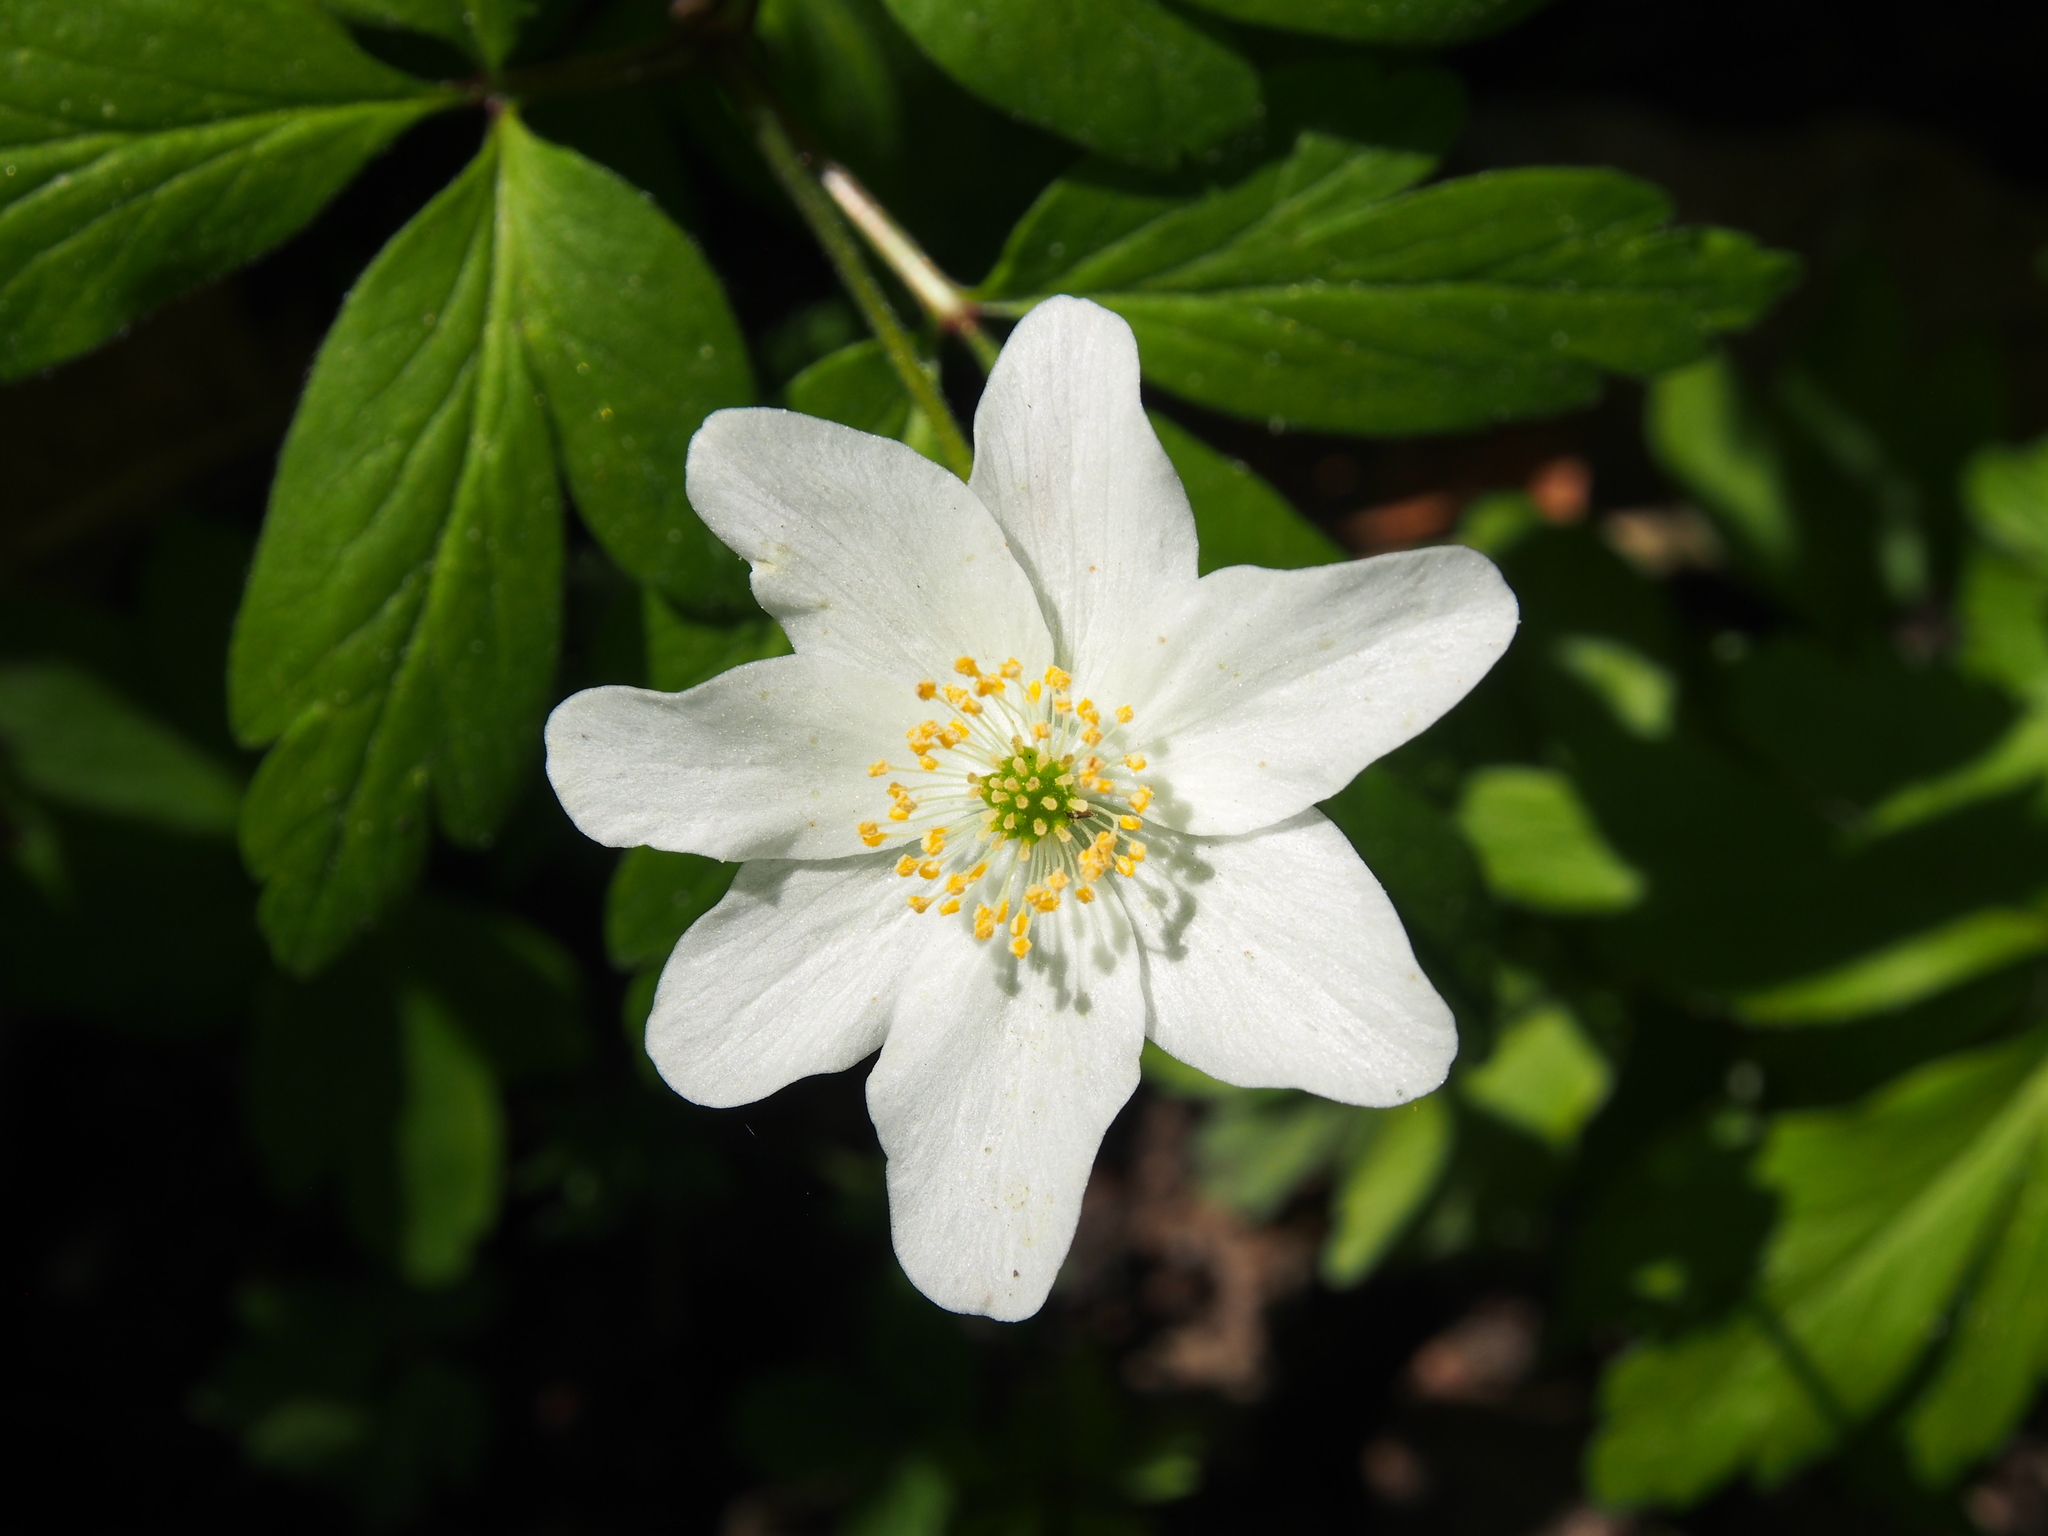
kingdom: Plantae
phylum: Tracheophyta
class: Magnoliopsida
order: Ranunculales
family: Ranunculaceae
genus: Anemone
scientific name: Anemone nemorosa
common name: Wood anemone
